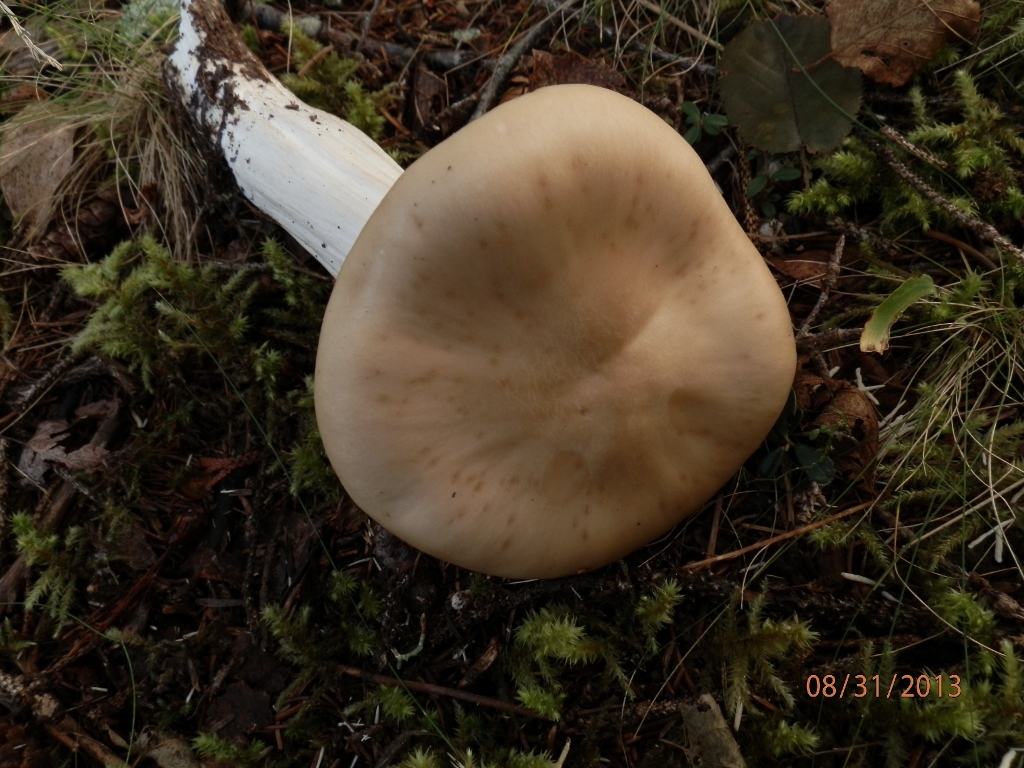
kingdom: Fungi
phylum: Basidiomycota
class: Agaricomycetes
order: Agaricales
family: Entolomataceae
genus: Entoloma
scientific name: Entoloma sinuatum
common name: Livid pinkgill
